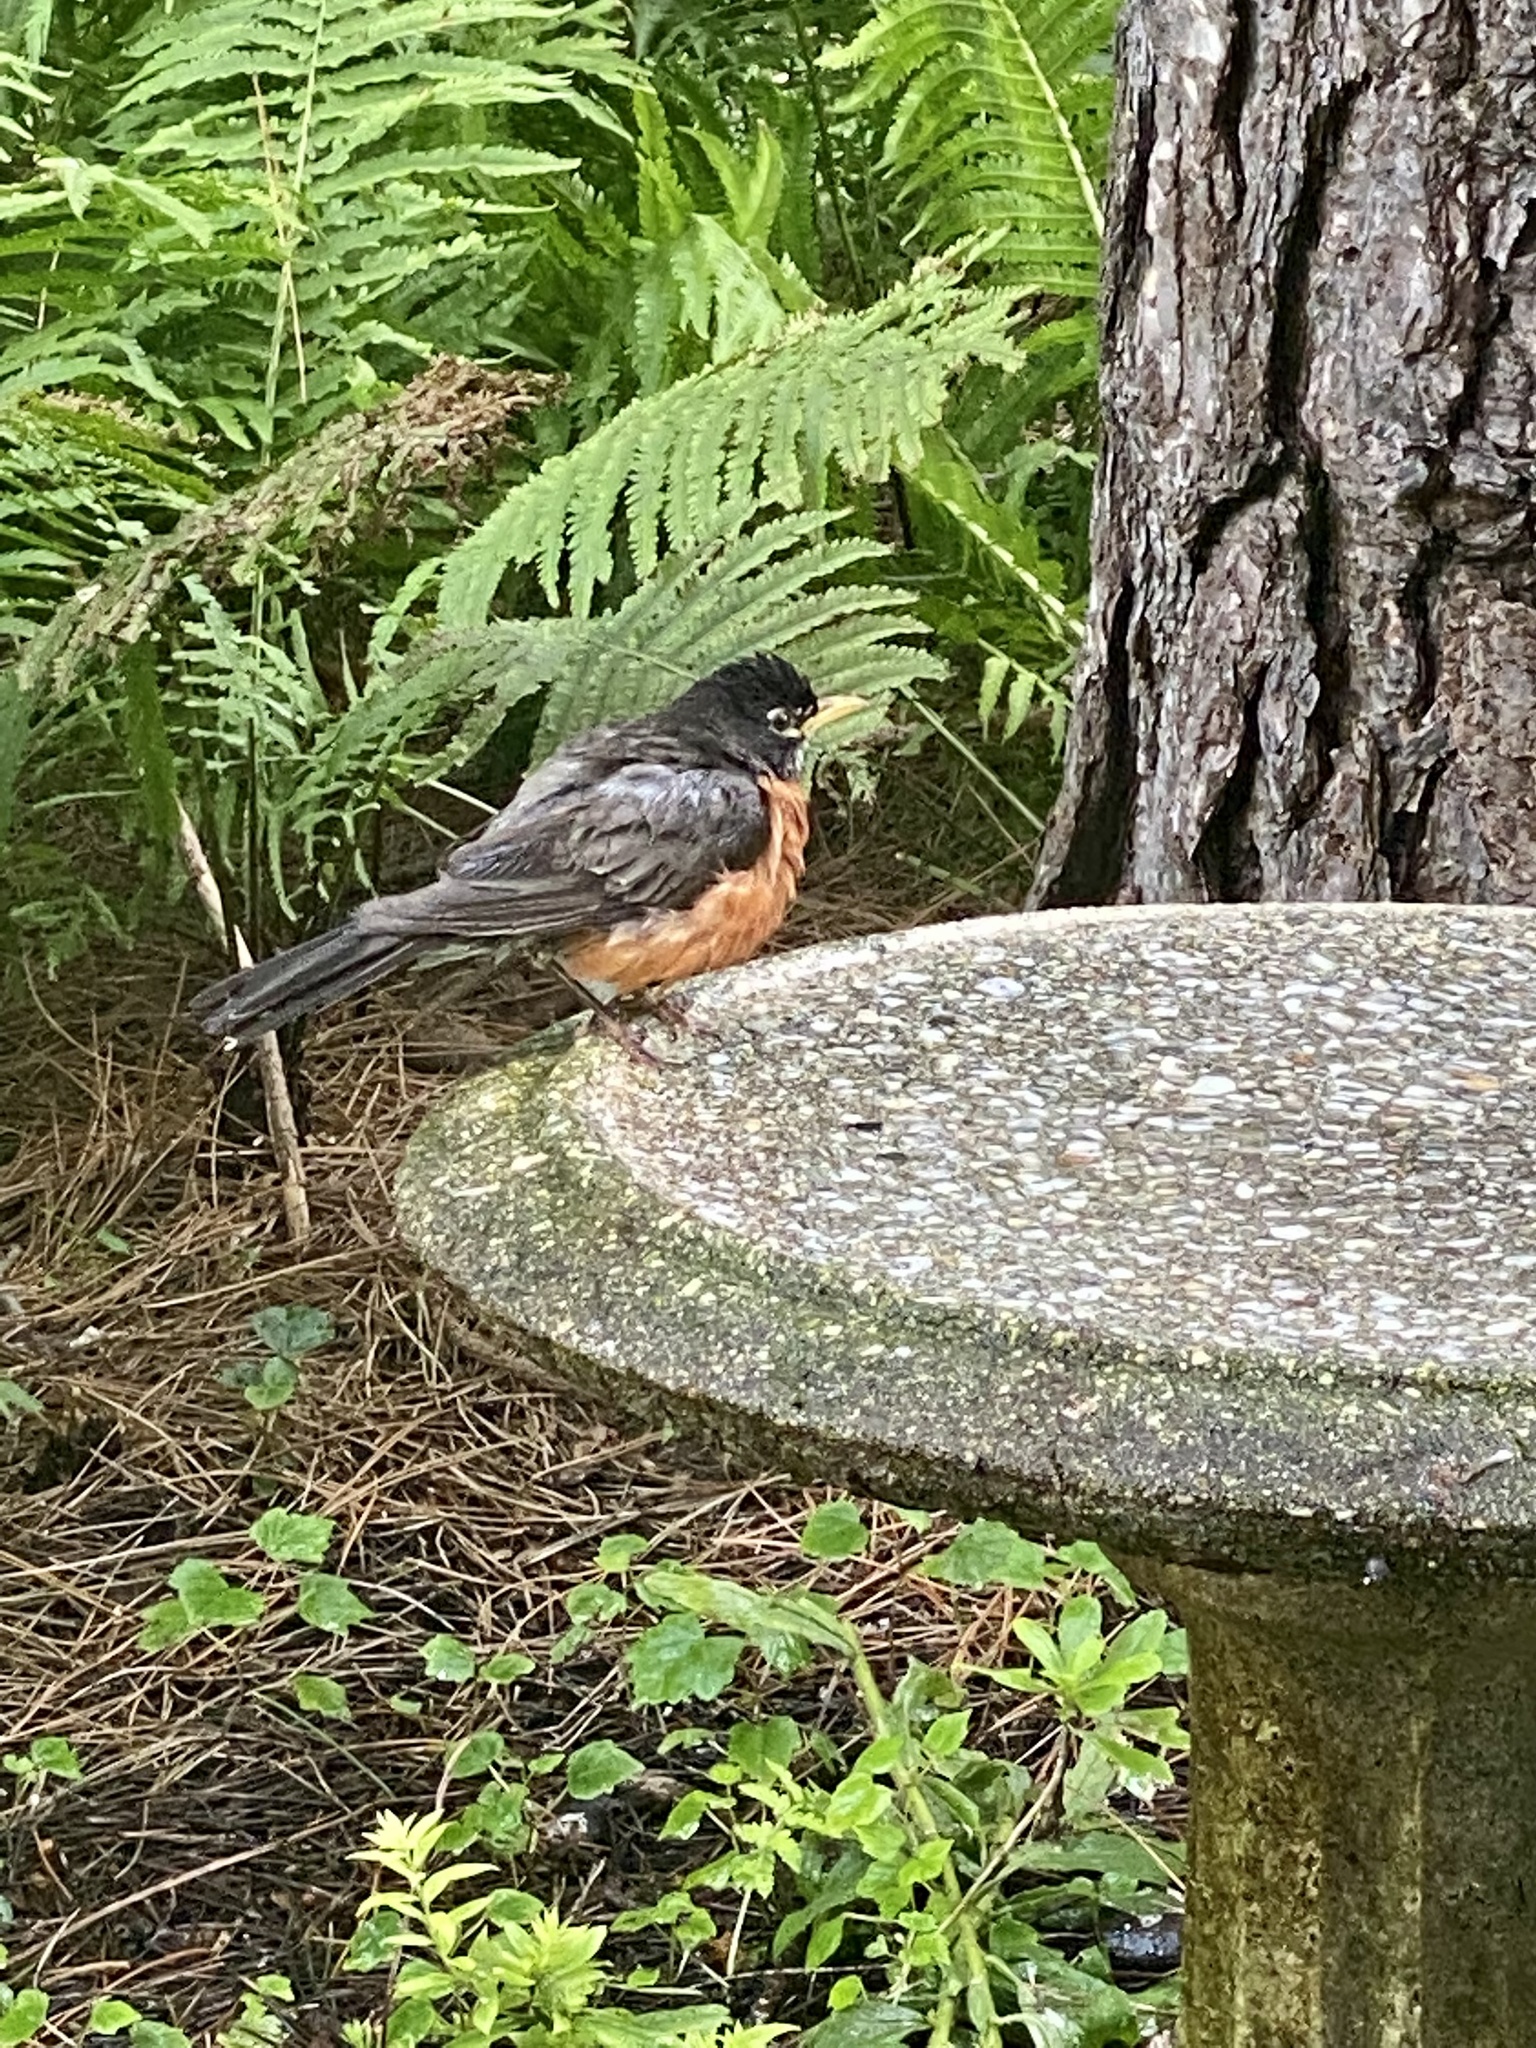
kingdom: Animalia
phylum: Chordata
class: Aves
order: Passeriformes
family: Turdidae
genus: Turdus
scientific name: Turdus migratorius
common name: American robin
